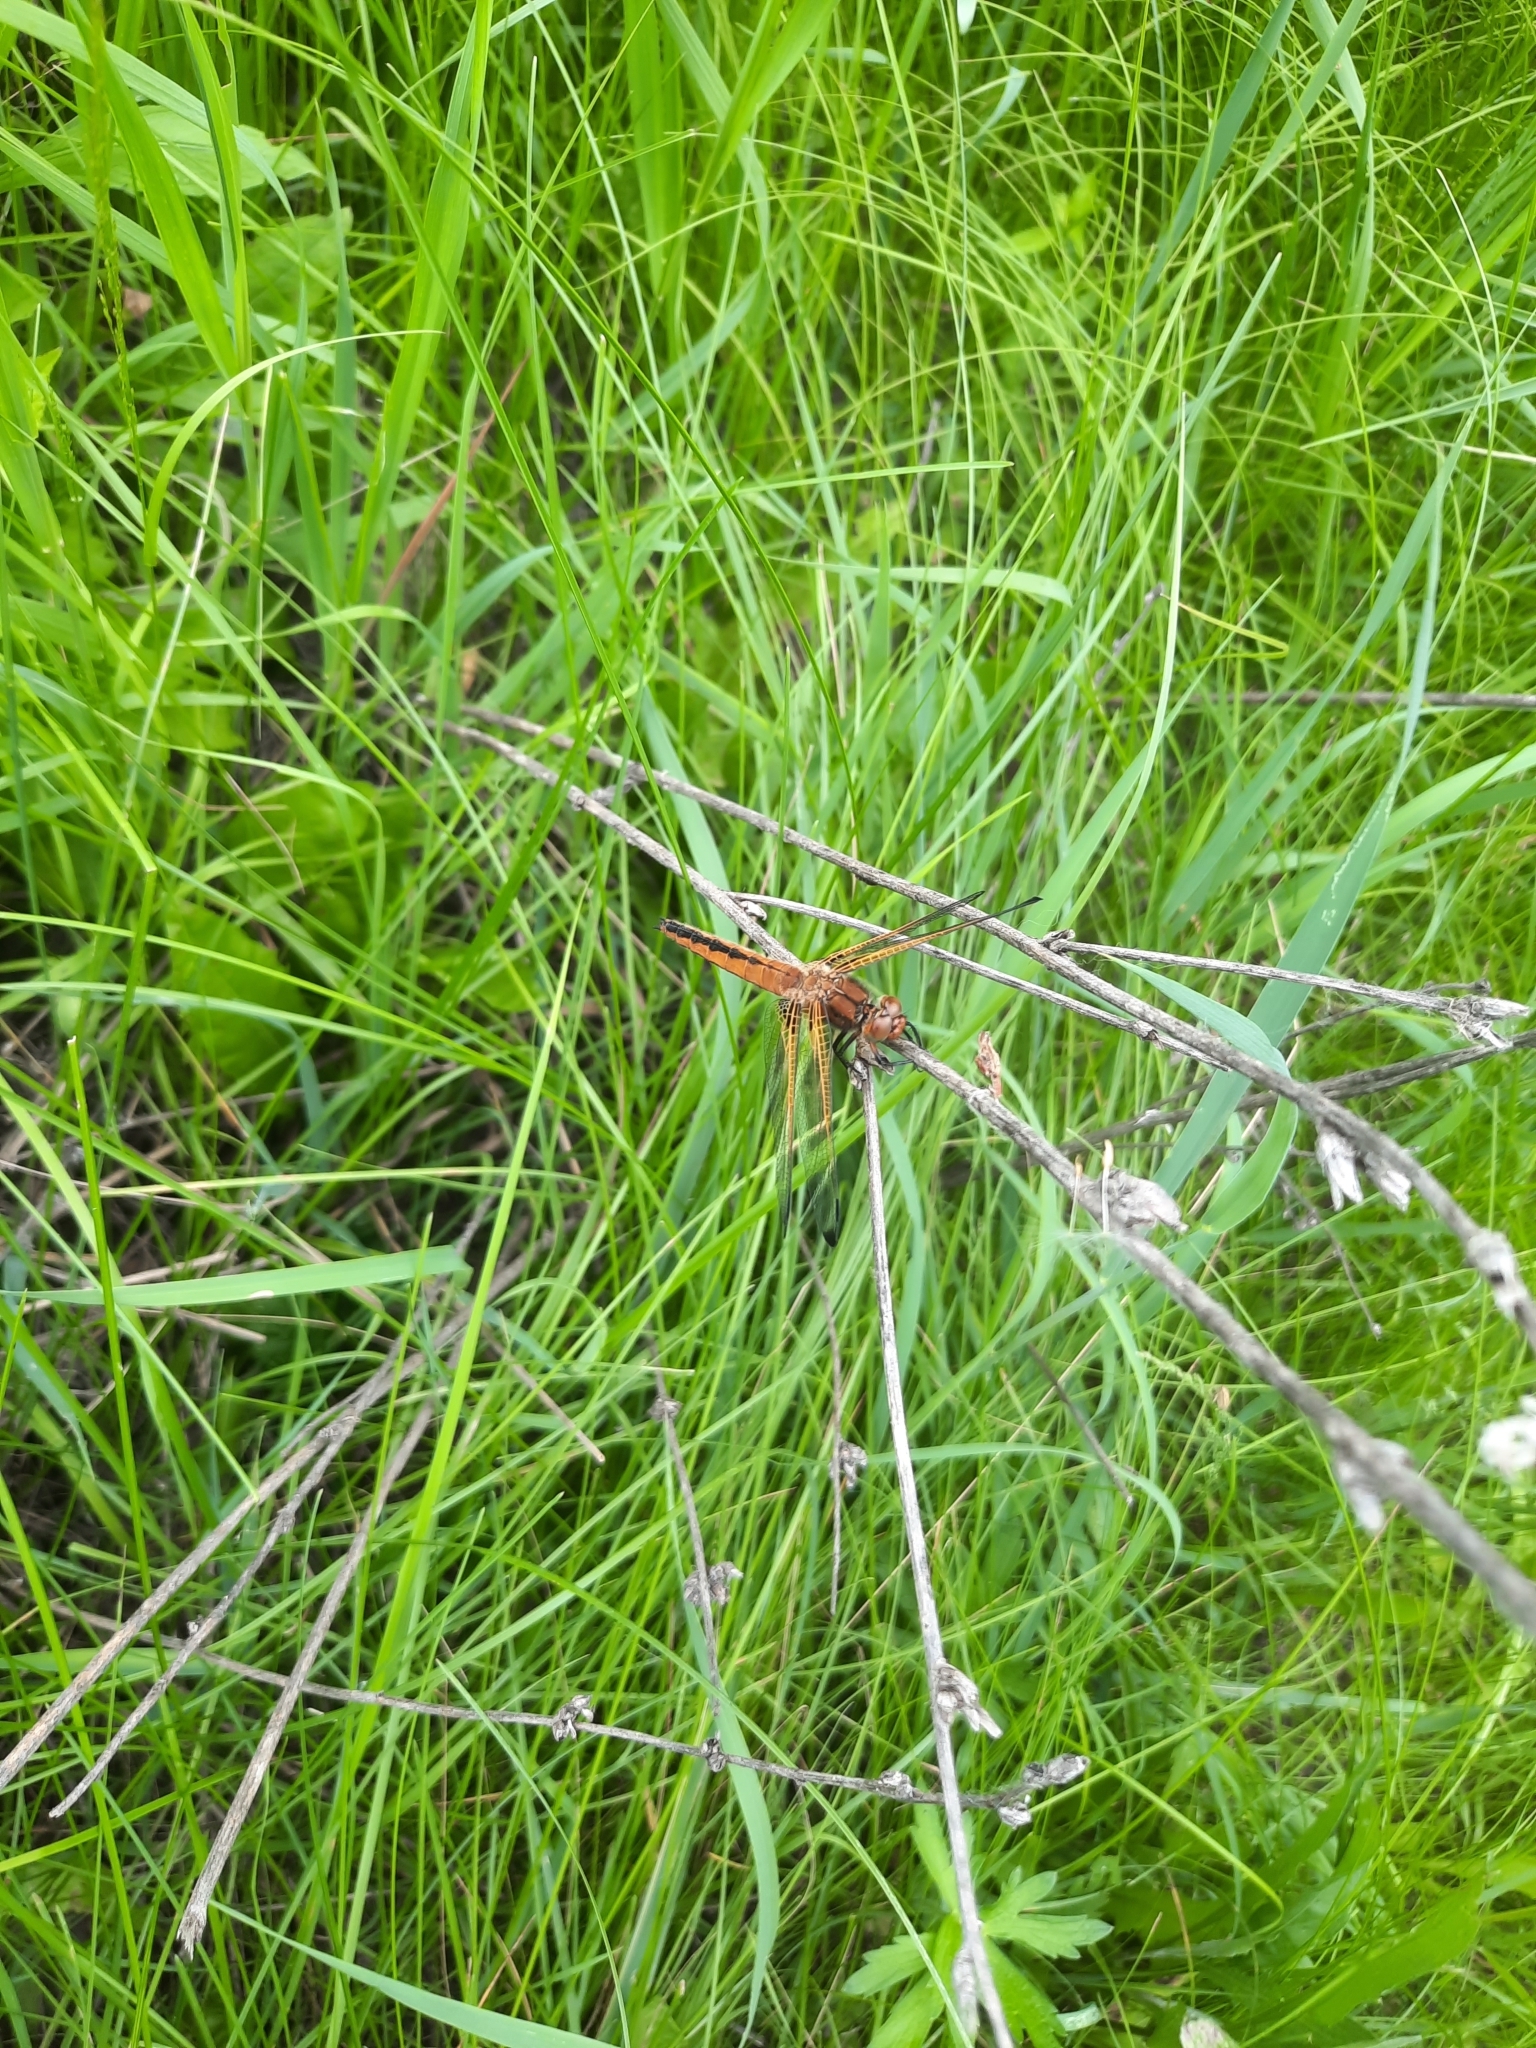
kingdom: Animalia
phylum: Arthropoda
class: Insecta
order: Odonata
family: Libellulidae
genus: Libellula
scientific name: Libellula fulva
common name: Blue chaser
